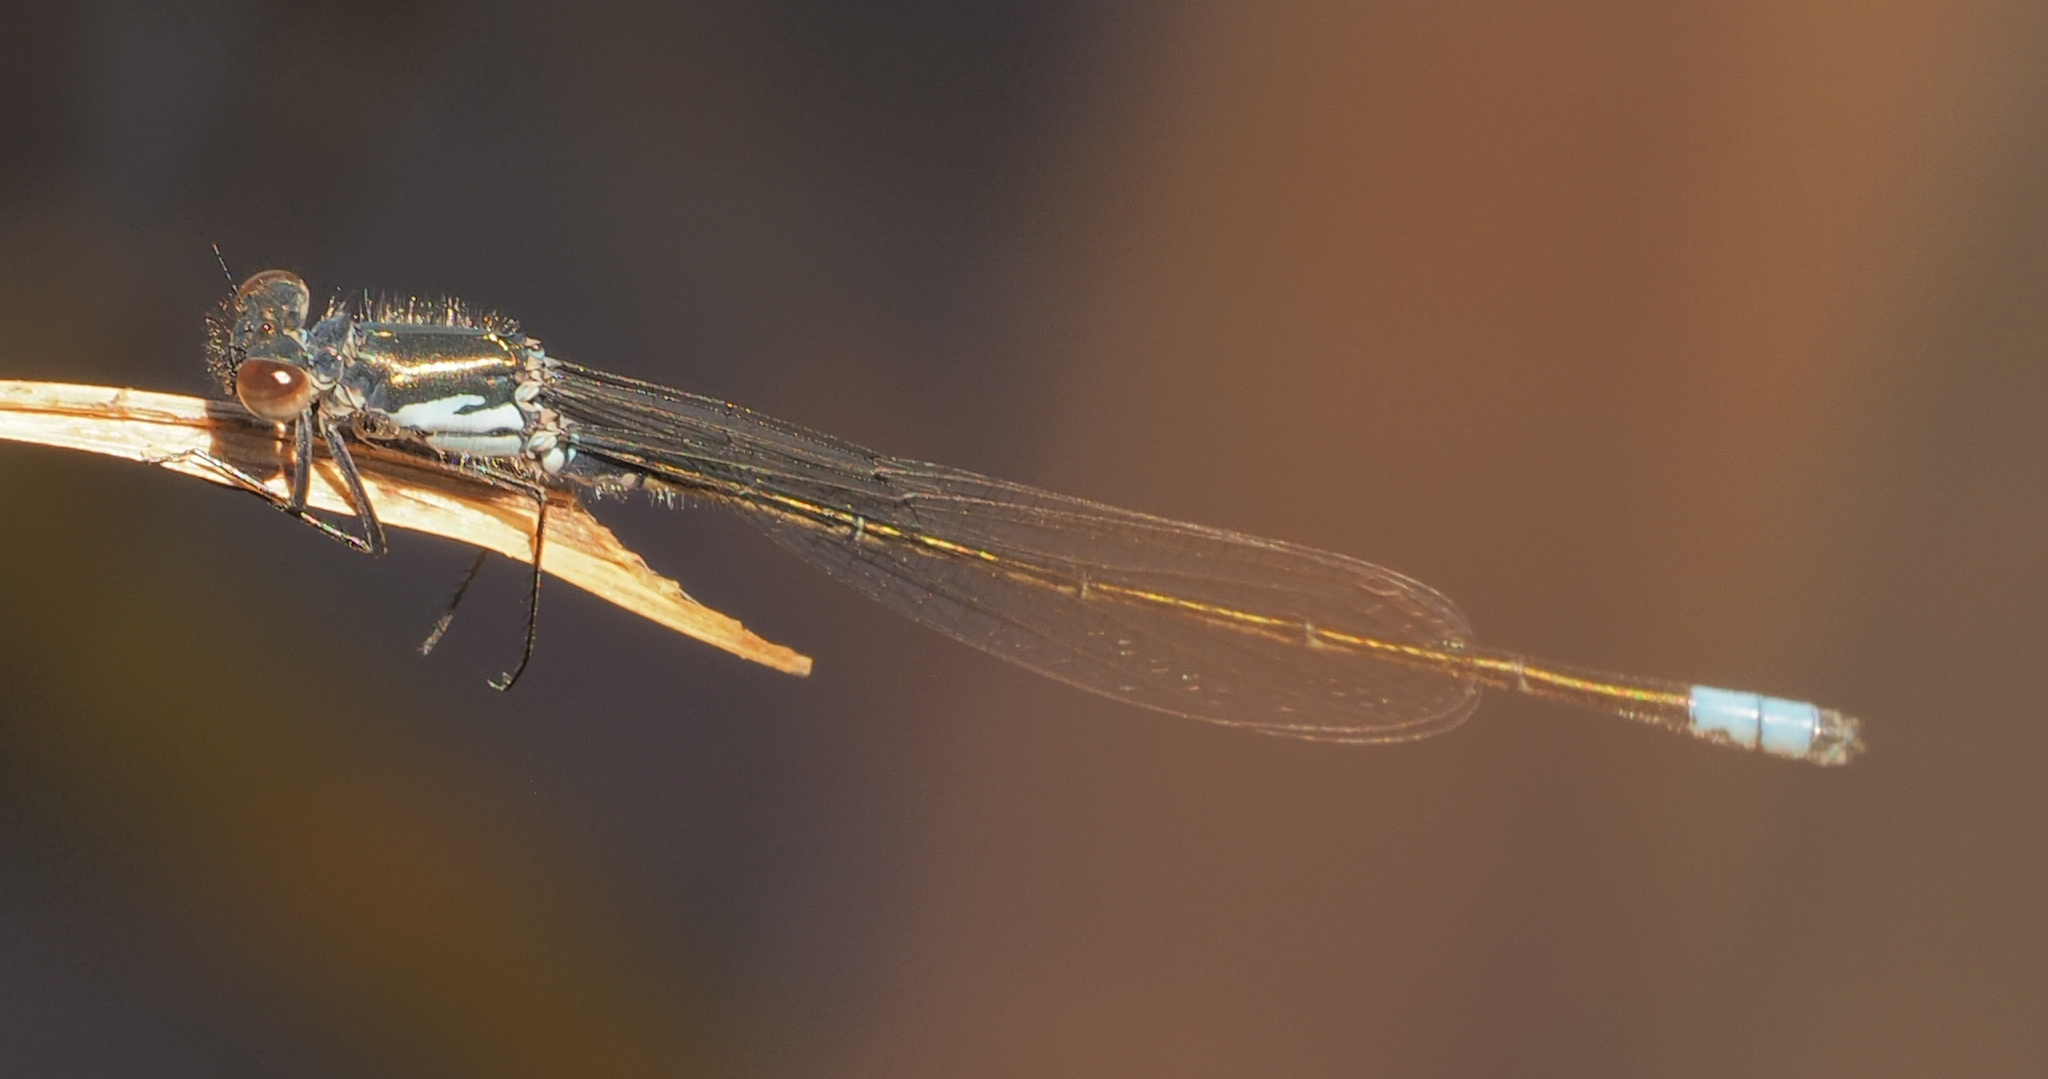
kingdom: Animalia
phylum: Arthropoda
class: Insecta
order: Odonata
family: Coenagrionidae
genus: Pseudagrion
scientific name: Pseudagrion deningi
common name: Dening's sprite
